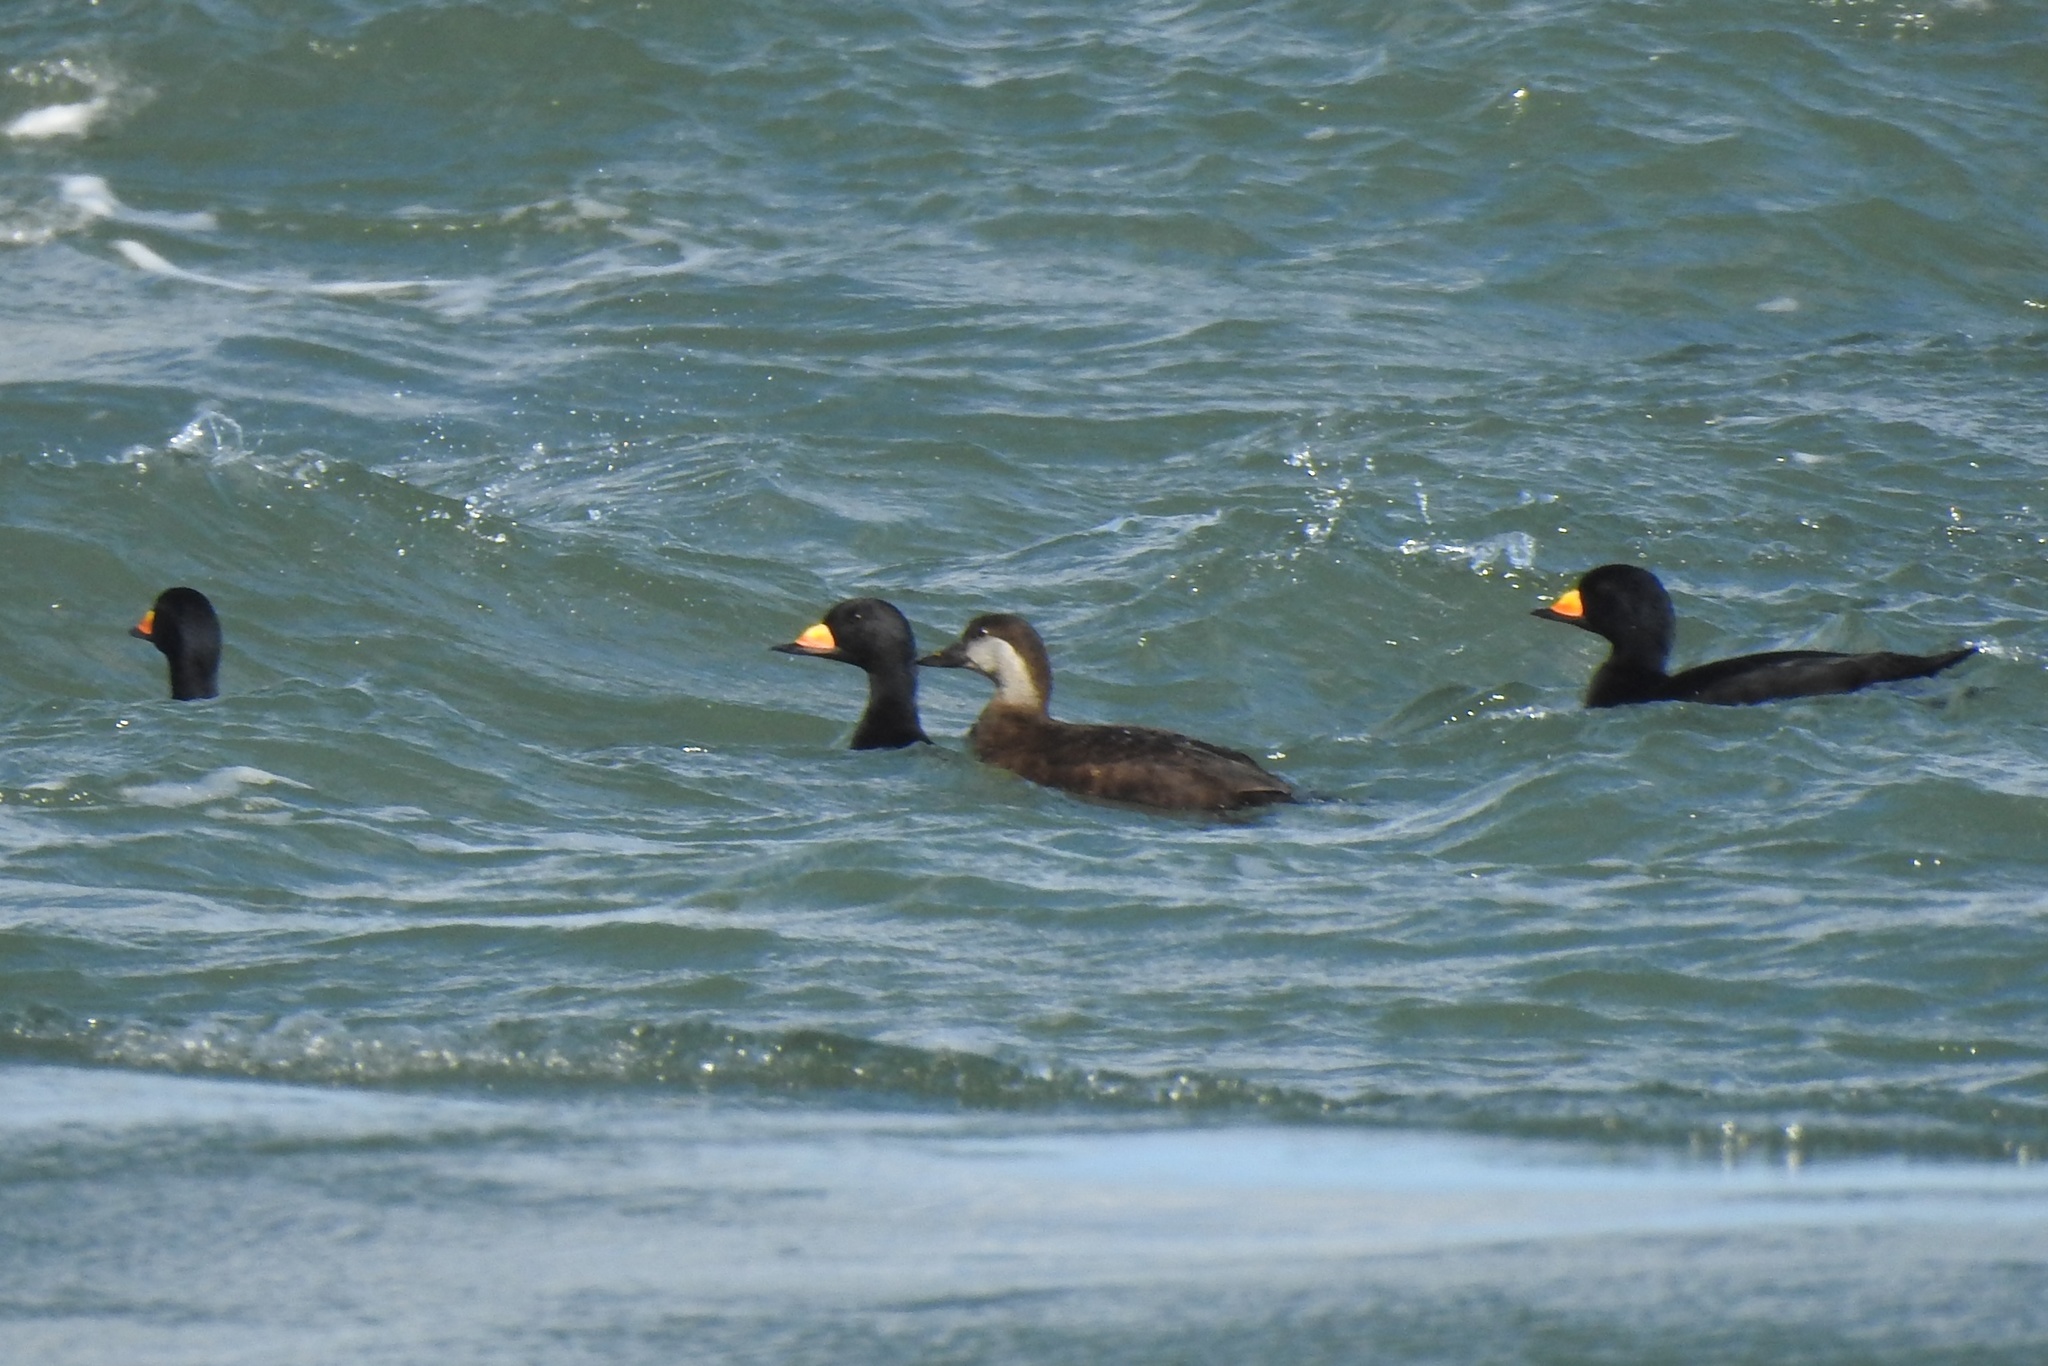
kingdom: Animalia
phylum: Chordata
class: Aves
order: Anseriformes
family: Anatidae
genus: Melanitta
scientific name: Melanitta americana
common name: Black scoter
